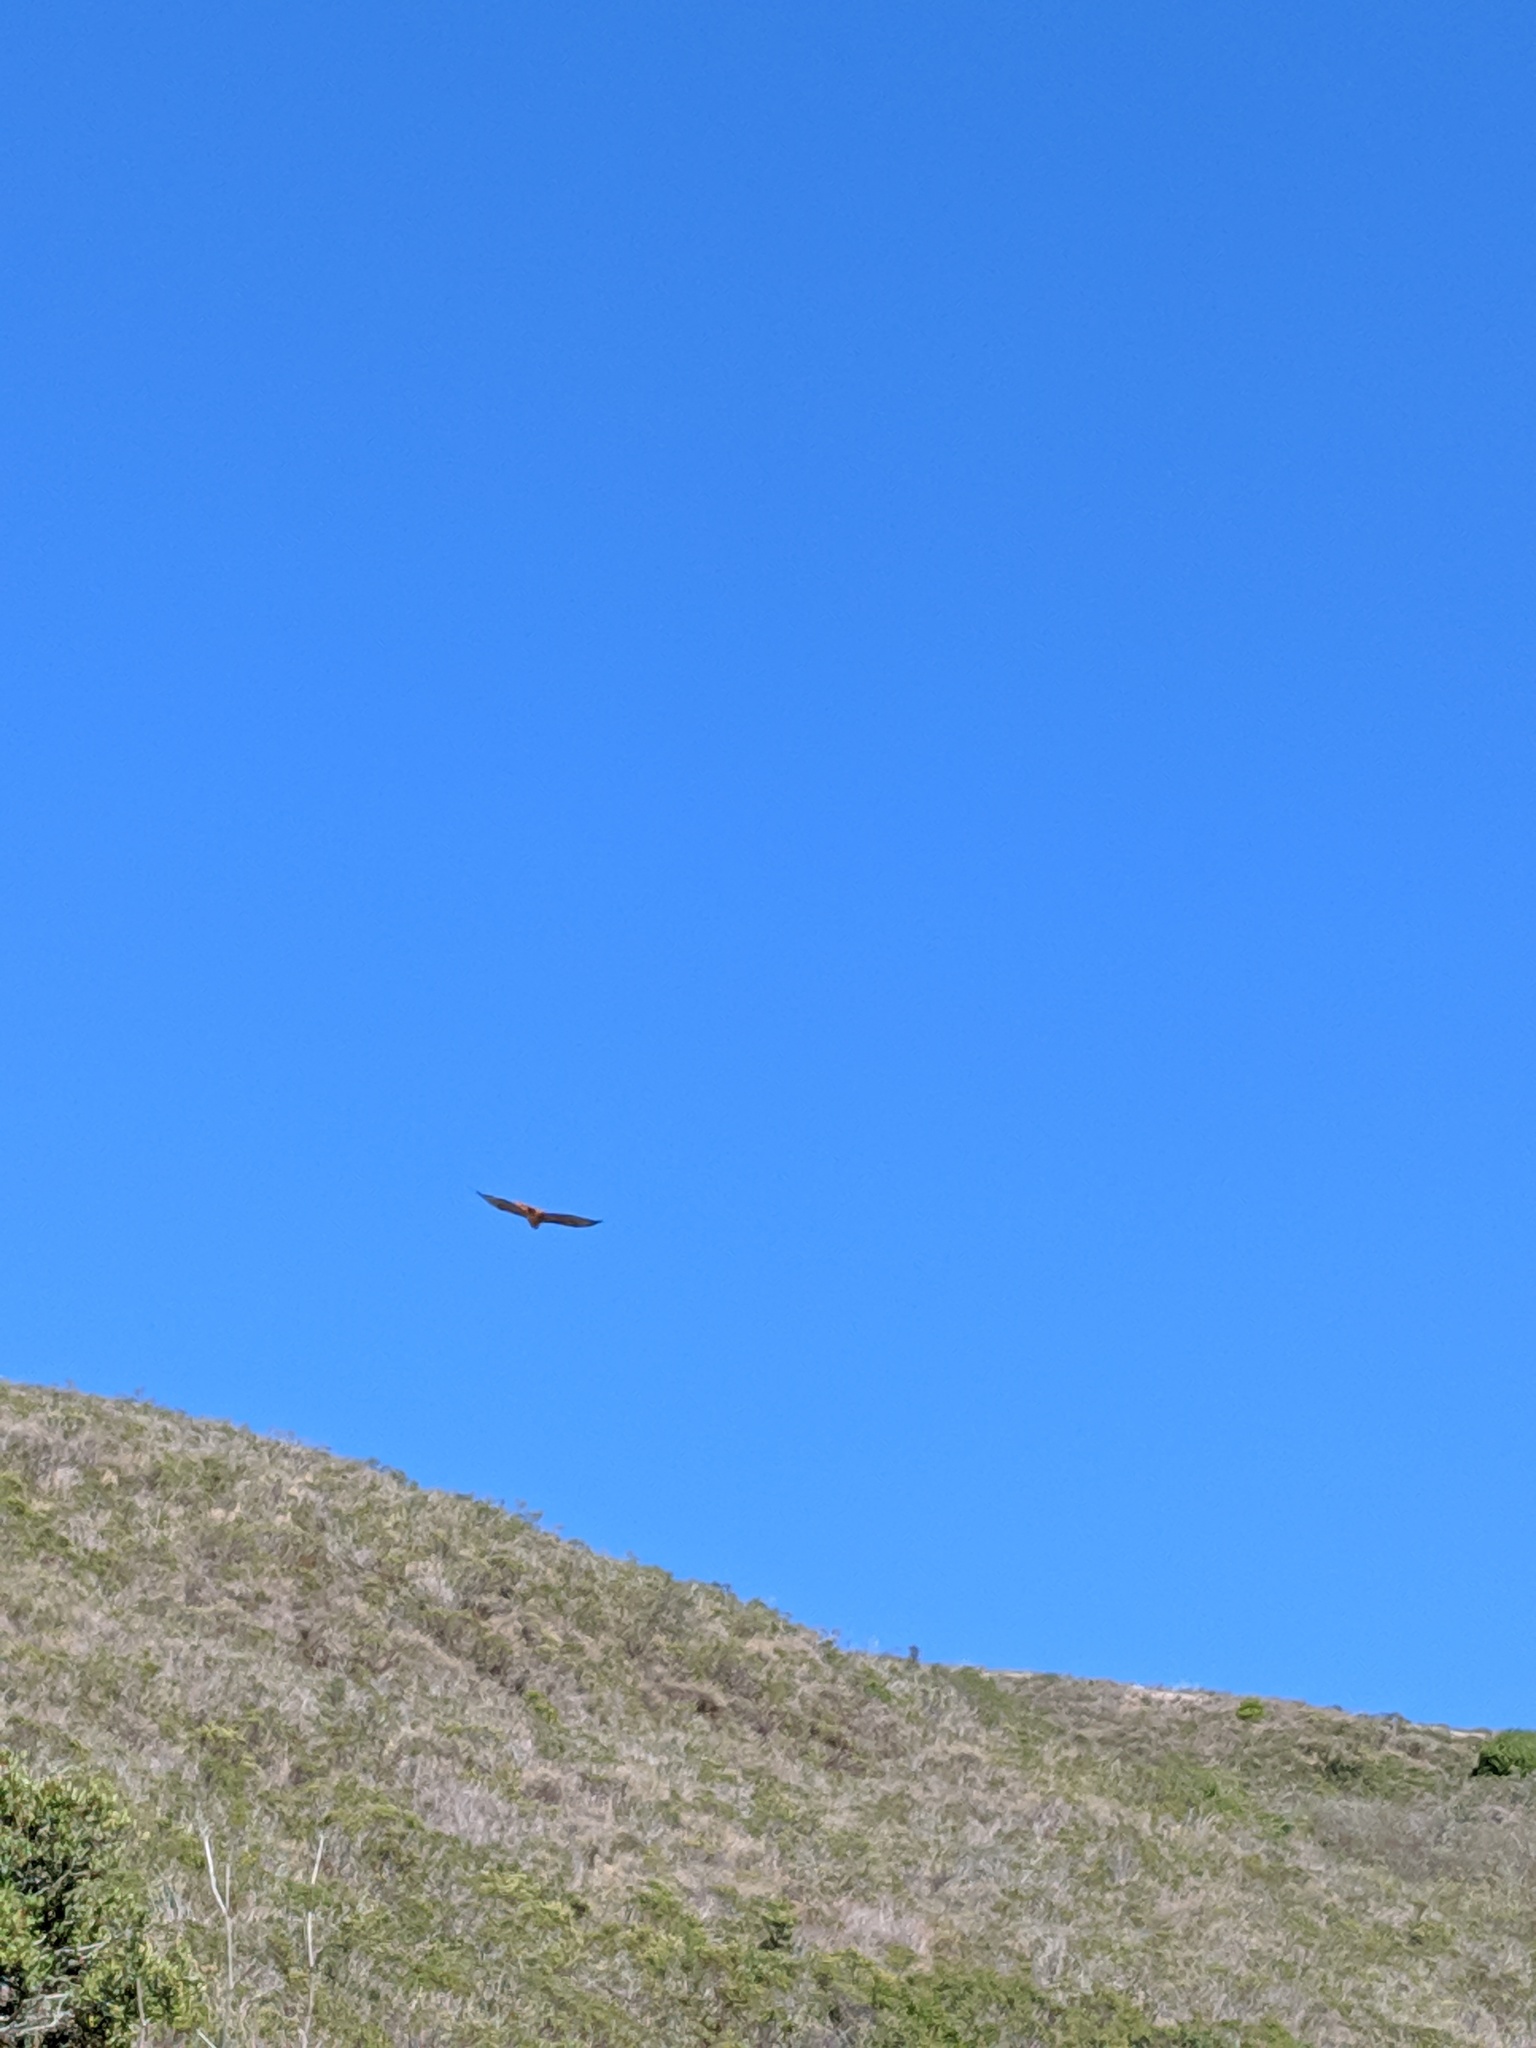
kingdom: Animalia
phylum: Chordata
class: Aves
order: Accipitriformes
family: Accipitridae
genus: Buteo
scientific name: Buteo jamaicensis
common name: Red-tailed hawk
